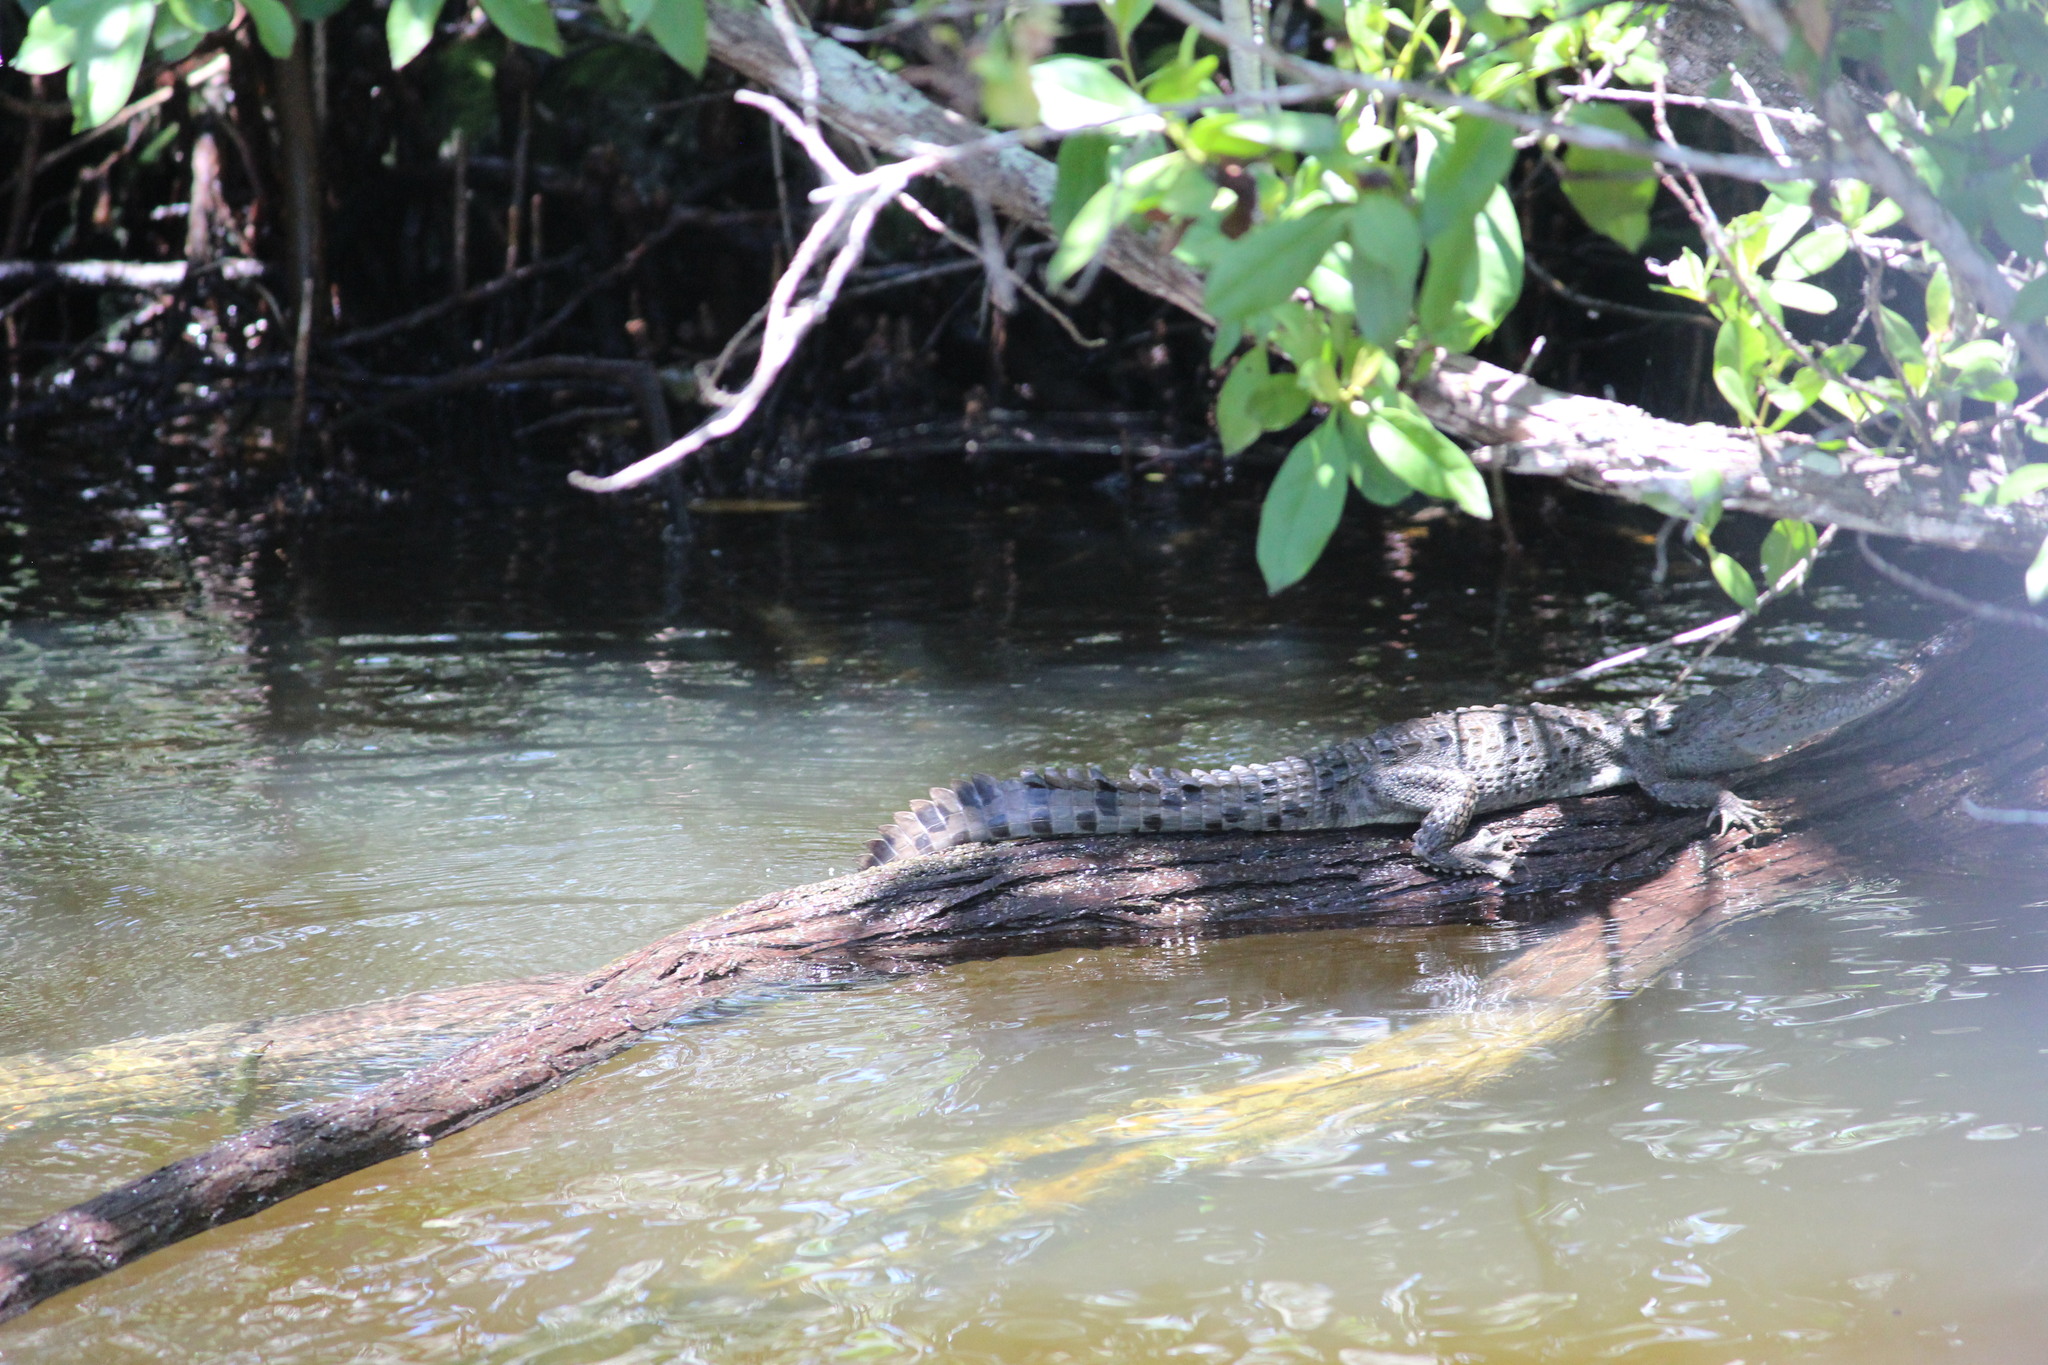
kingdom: Animalia
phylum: Chordata
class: Crocodylia
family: Crocodylidae
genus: Crocodylus
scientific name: Crocodylus acutus
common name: American crocodile
